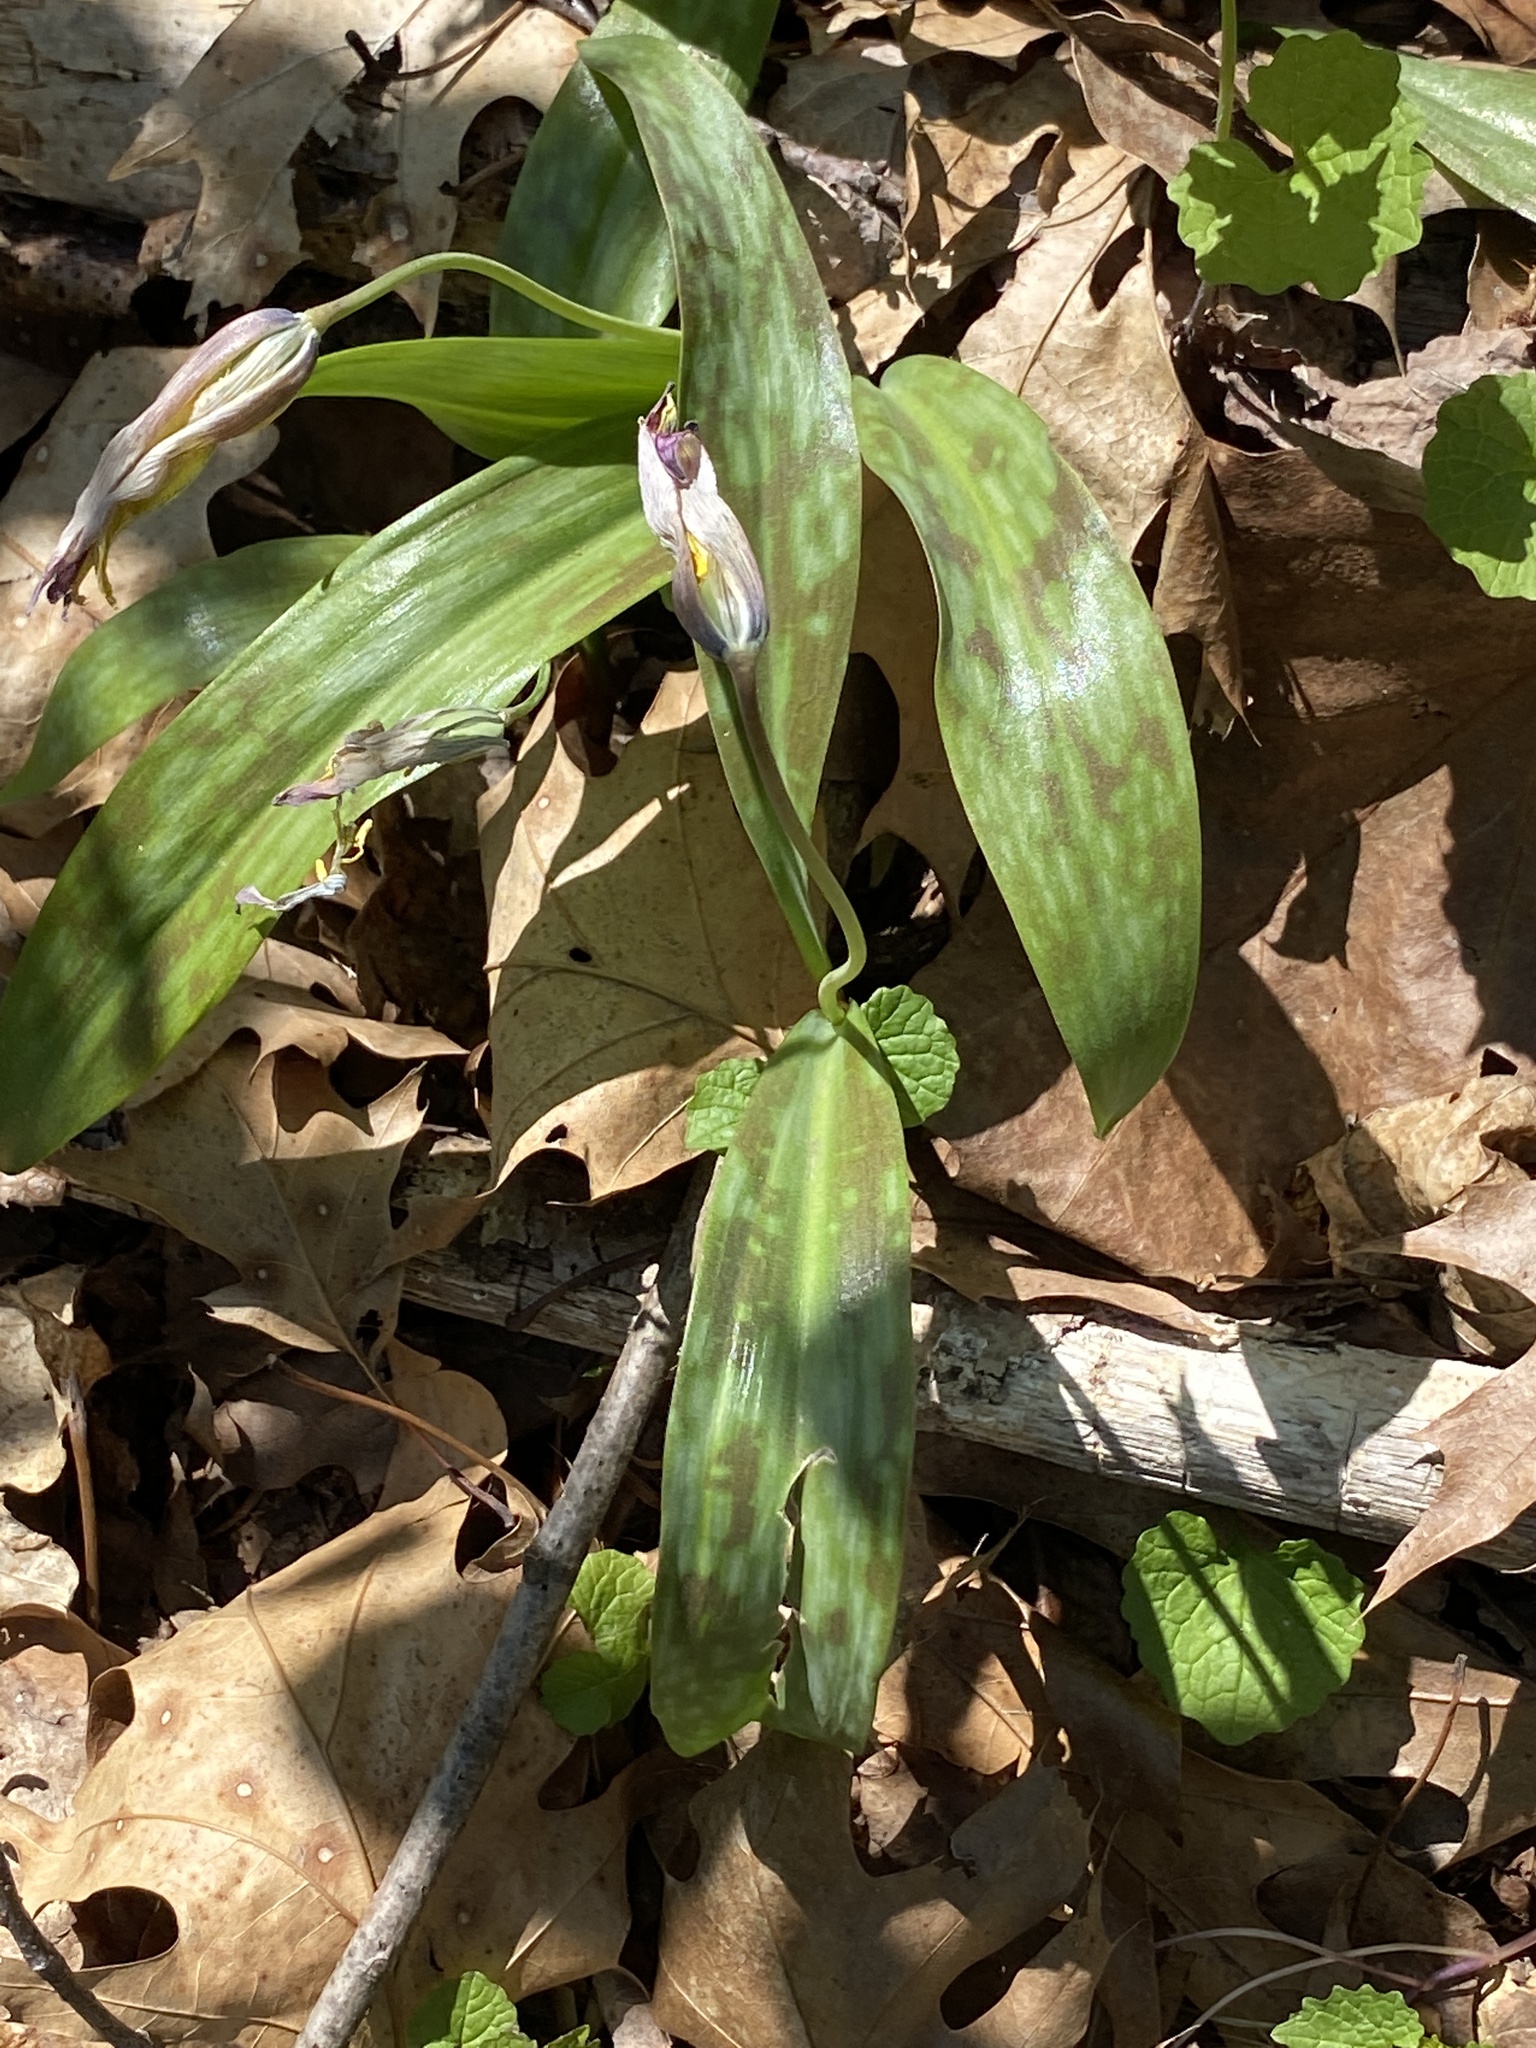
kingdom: Plantae
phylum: Tracheophyta
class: Liliopsida
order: Liliales
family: Liliaceae
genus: Erythronium
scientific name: Erythronium americanum
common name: Yellow adder's-tongue
